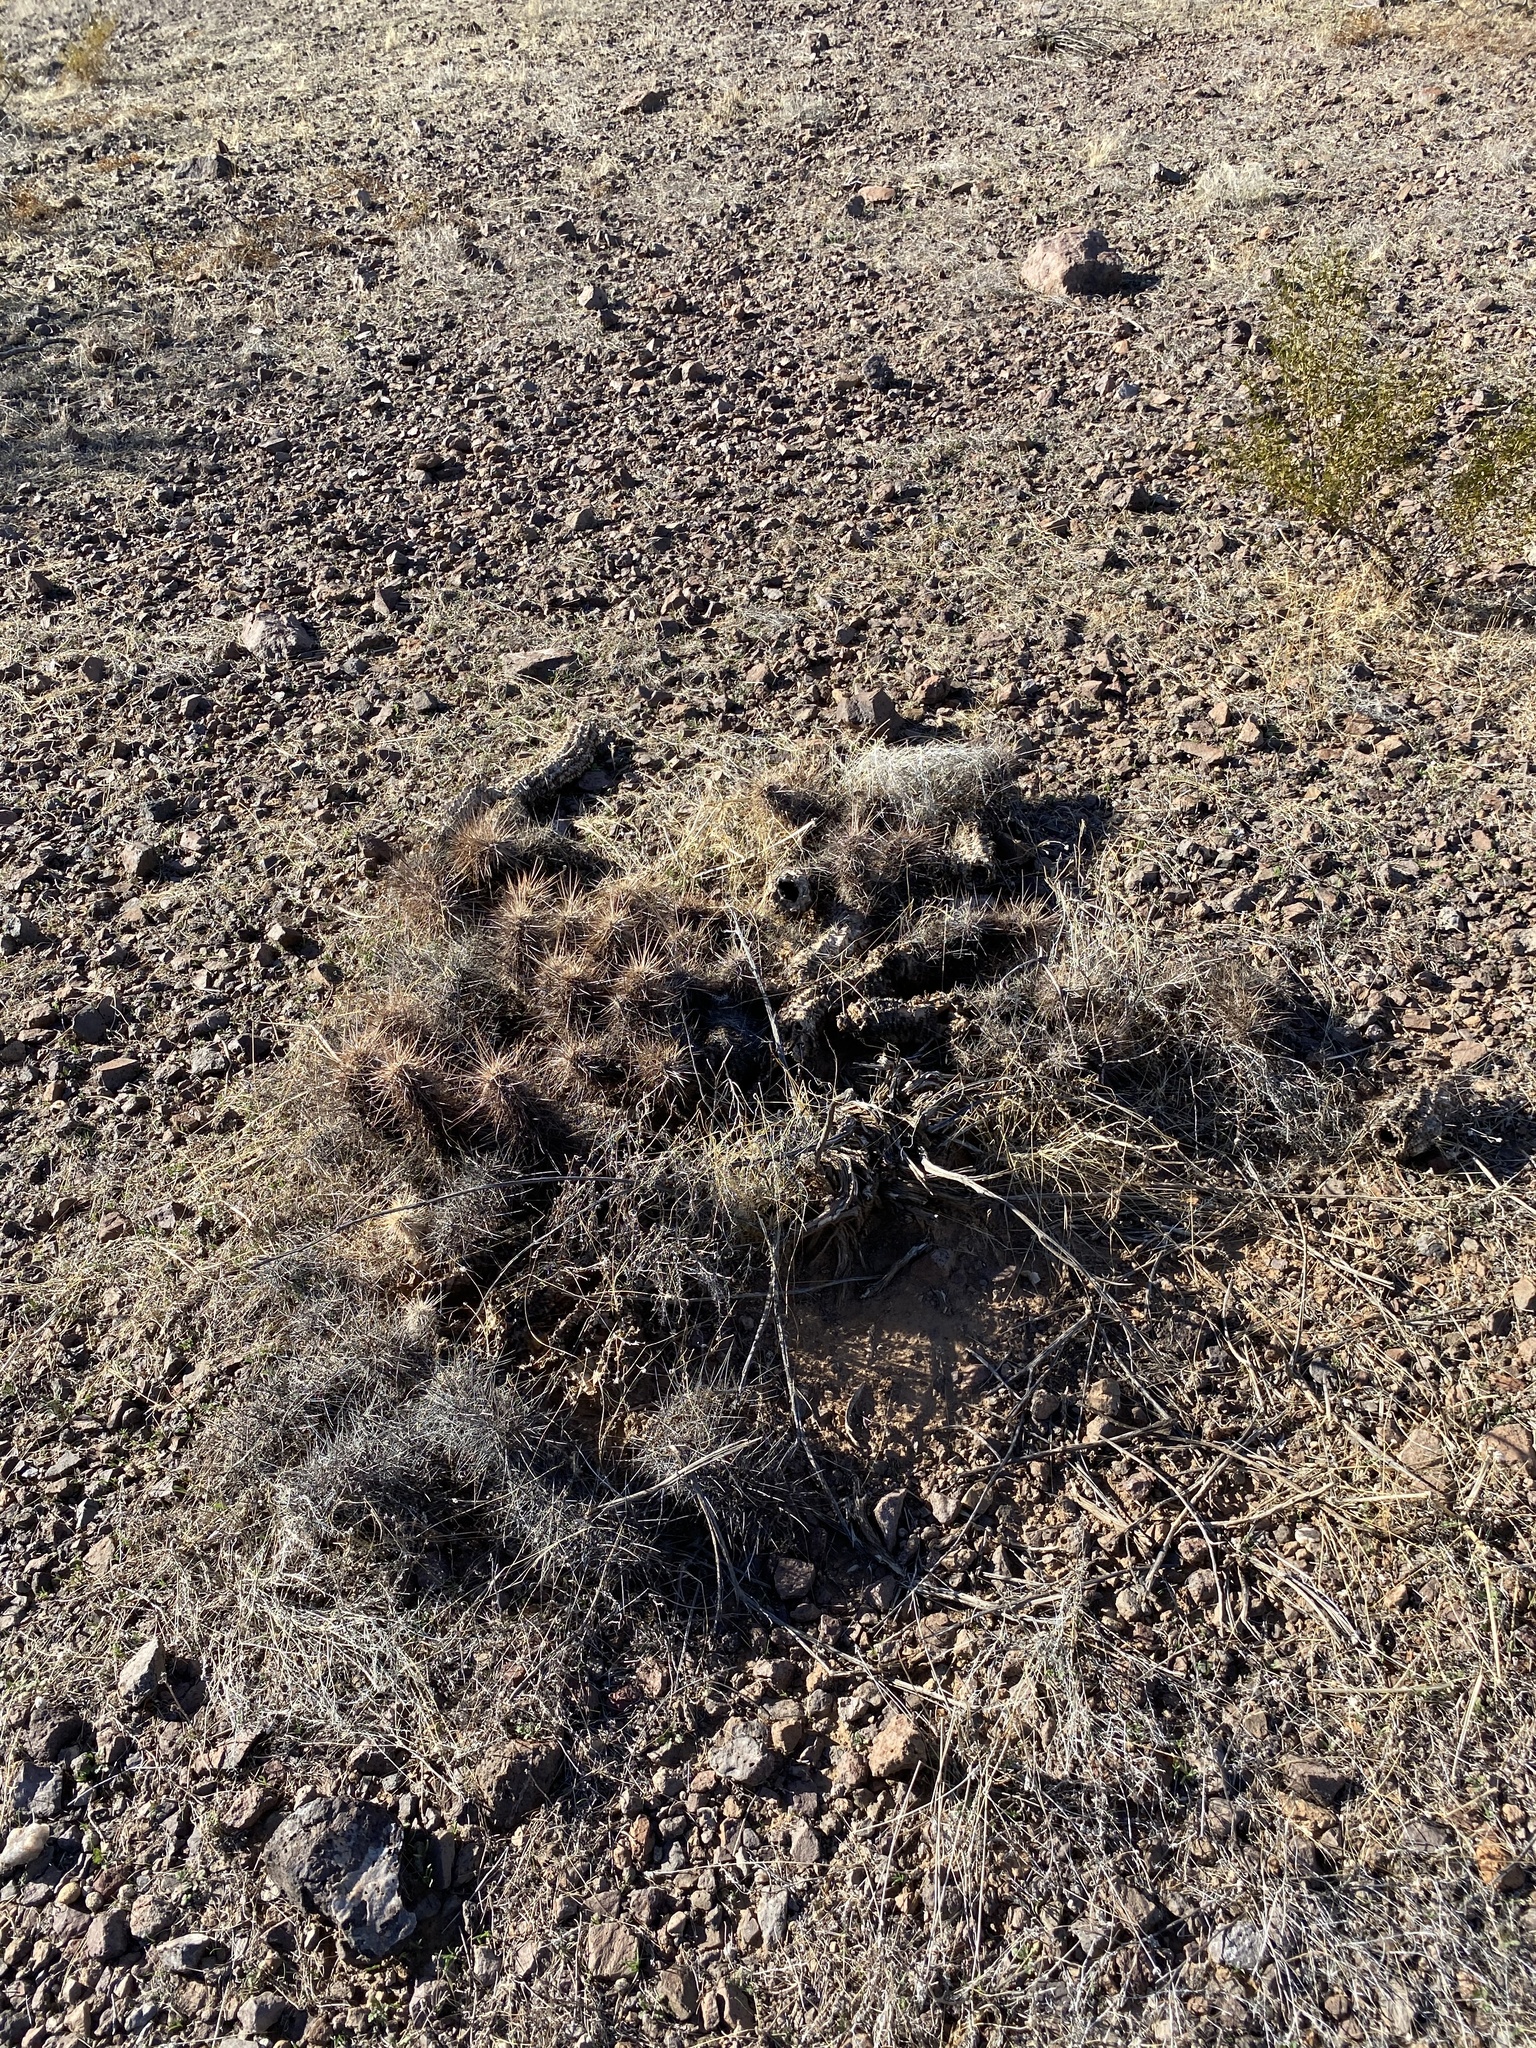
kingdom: Plantae
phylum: Tracheophyta
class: Magnoliopsida
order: Caryophyllales
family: Cactaceae
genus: Echinocereus
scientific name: Echinocereus engelmannii
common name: Engelmann's hedgehog cactus
